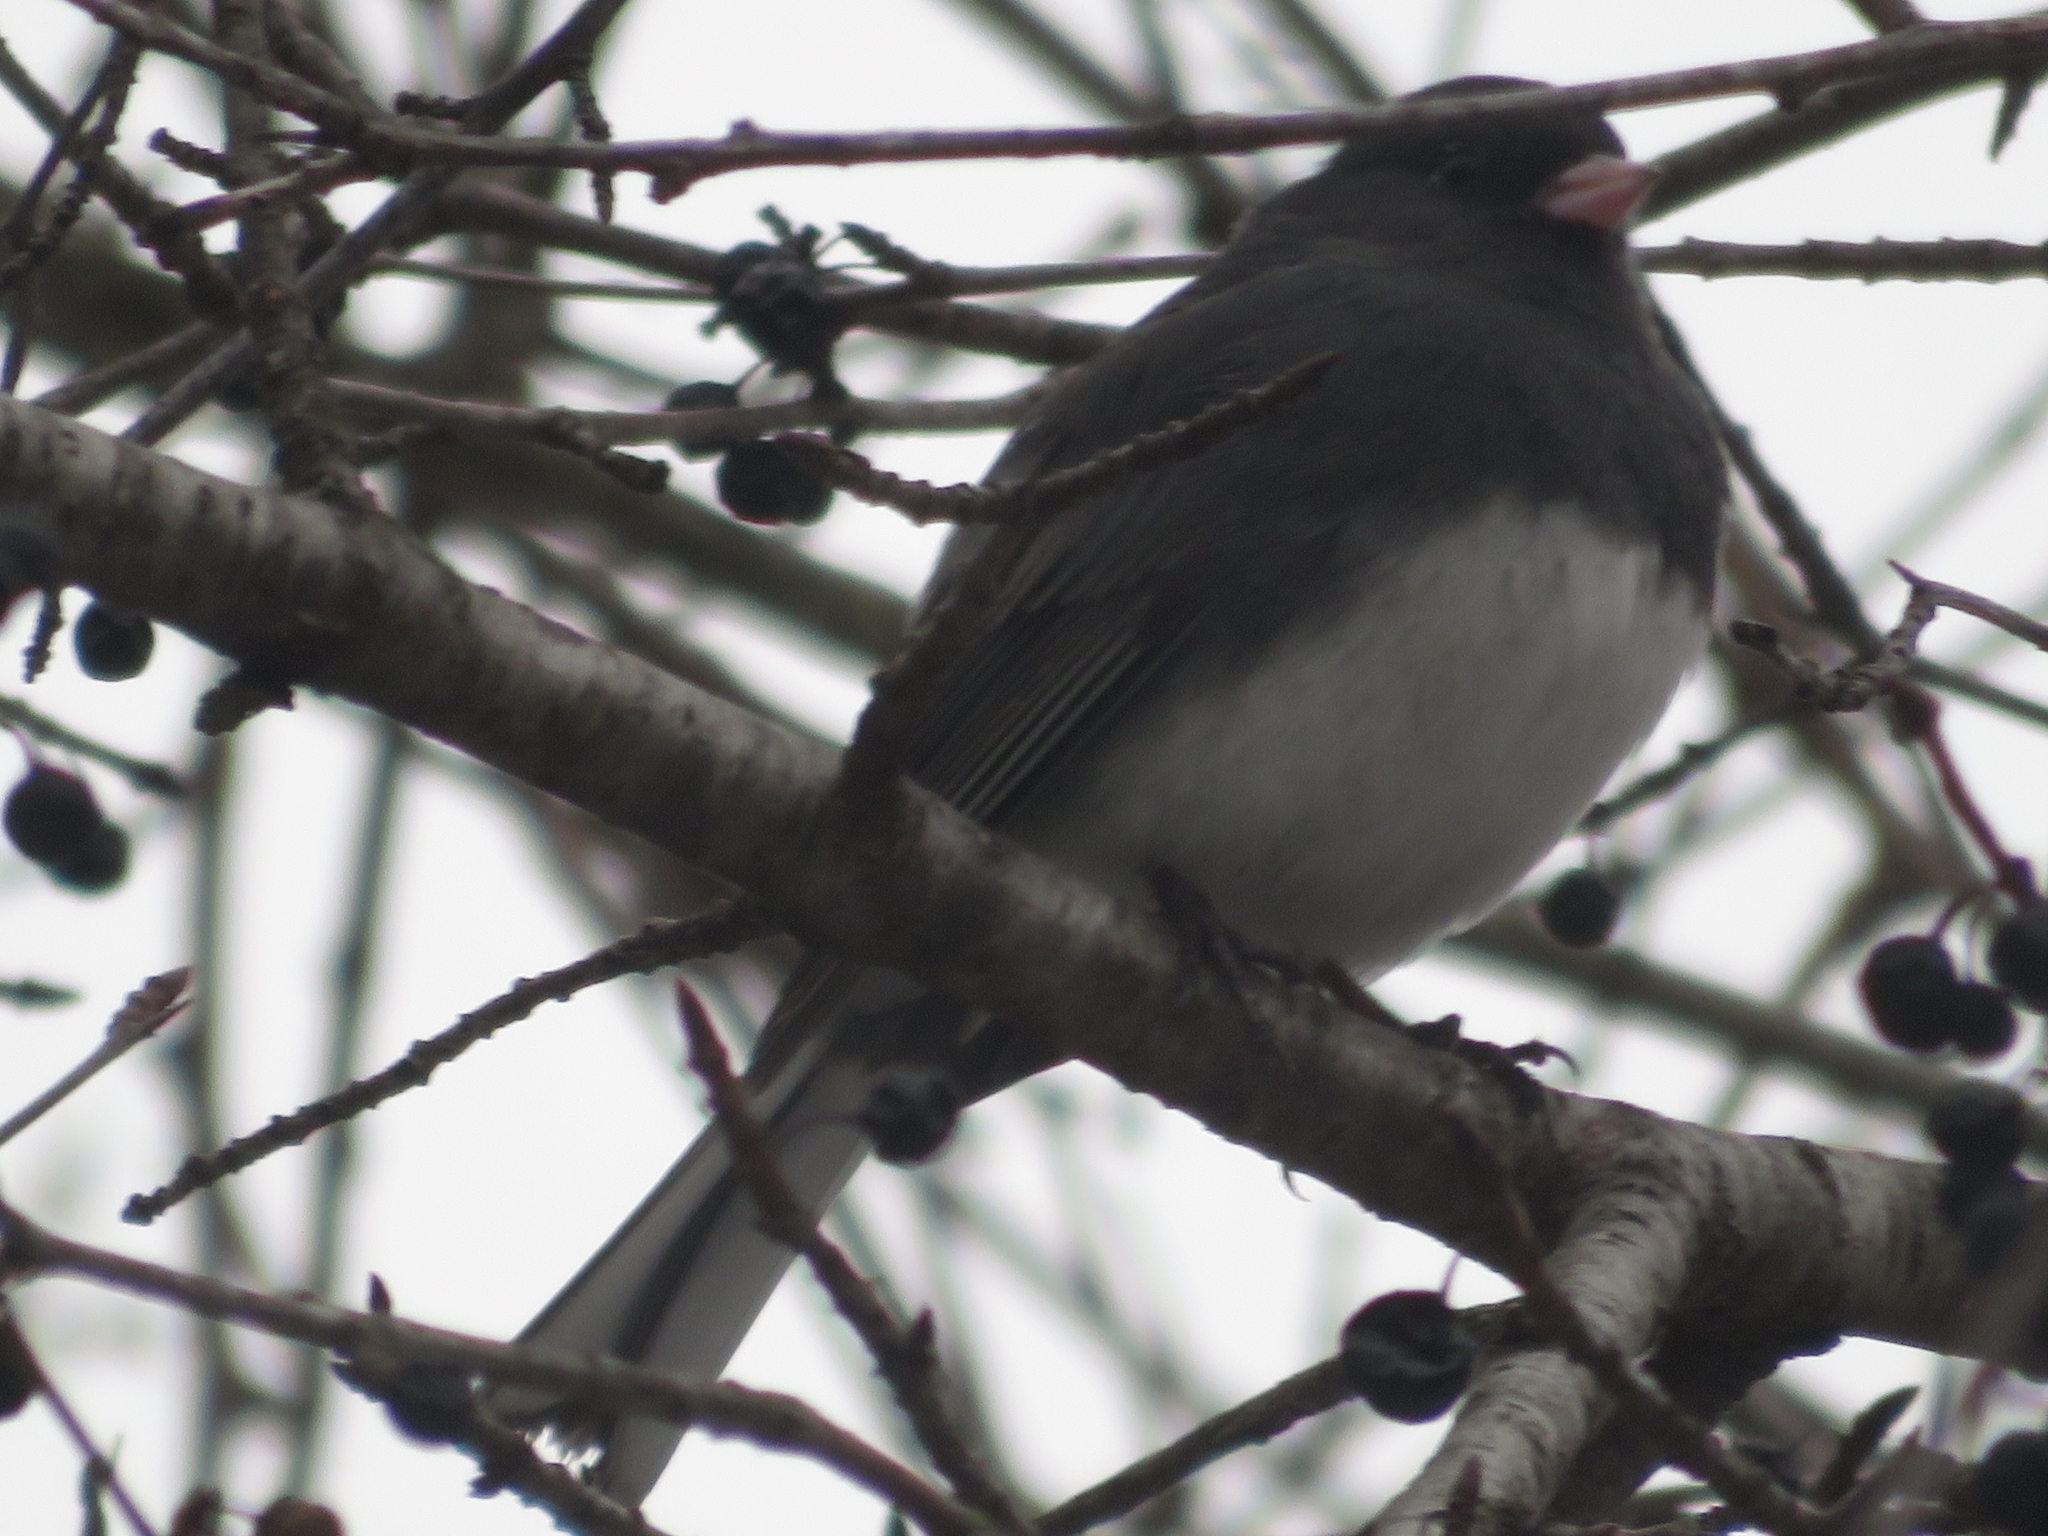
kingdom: Animalia
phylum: Chordata
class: Aves
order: Passeriformes
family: Passerellidae
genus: Junco
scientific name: Junco hyemalis
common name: Dark-eyed junco
